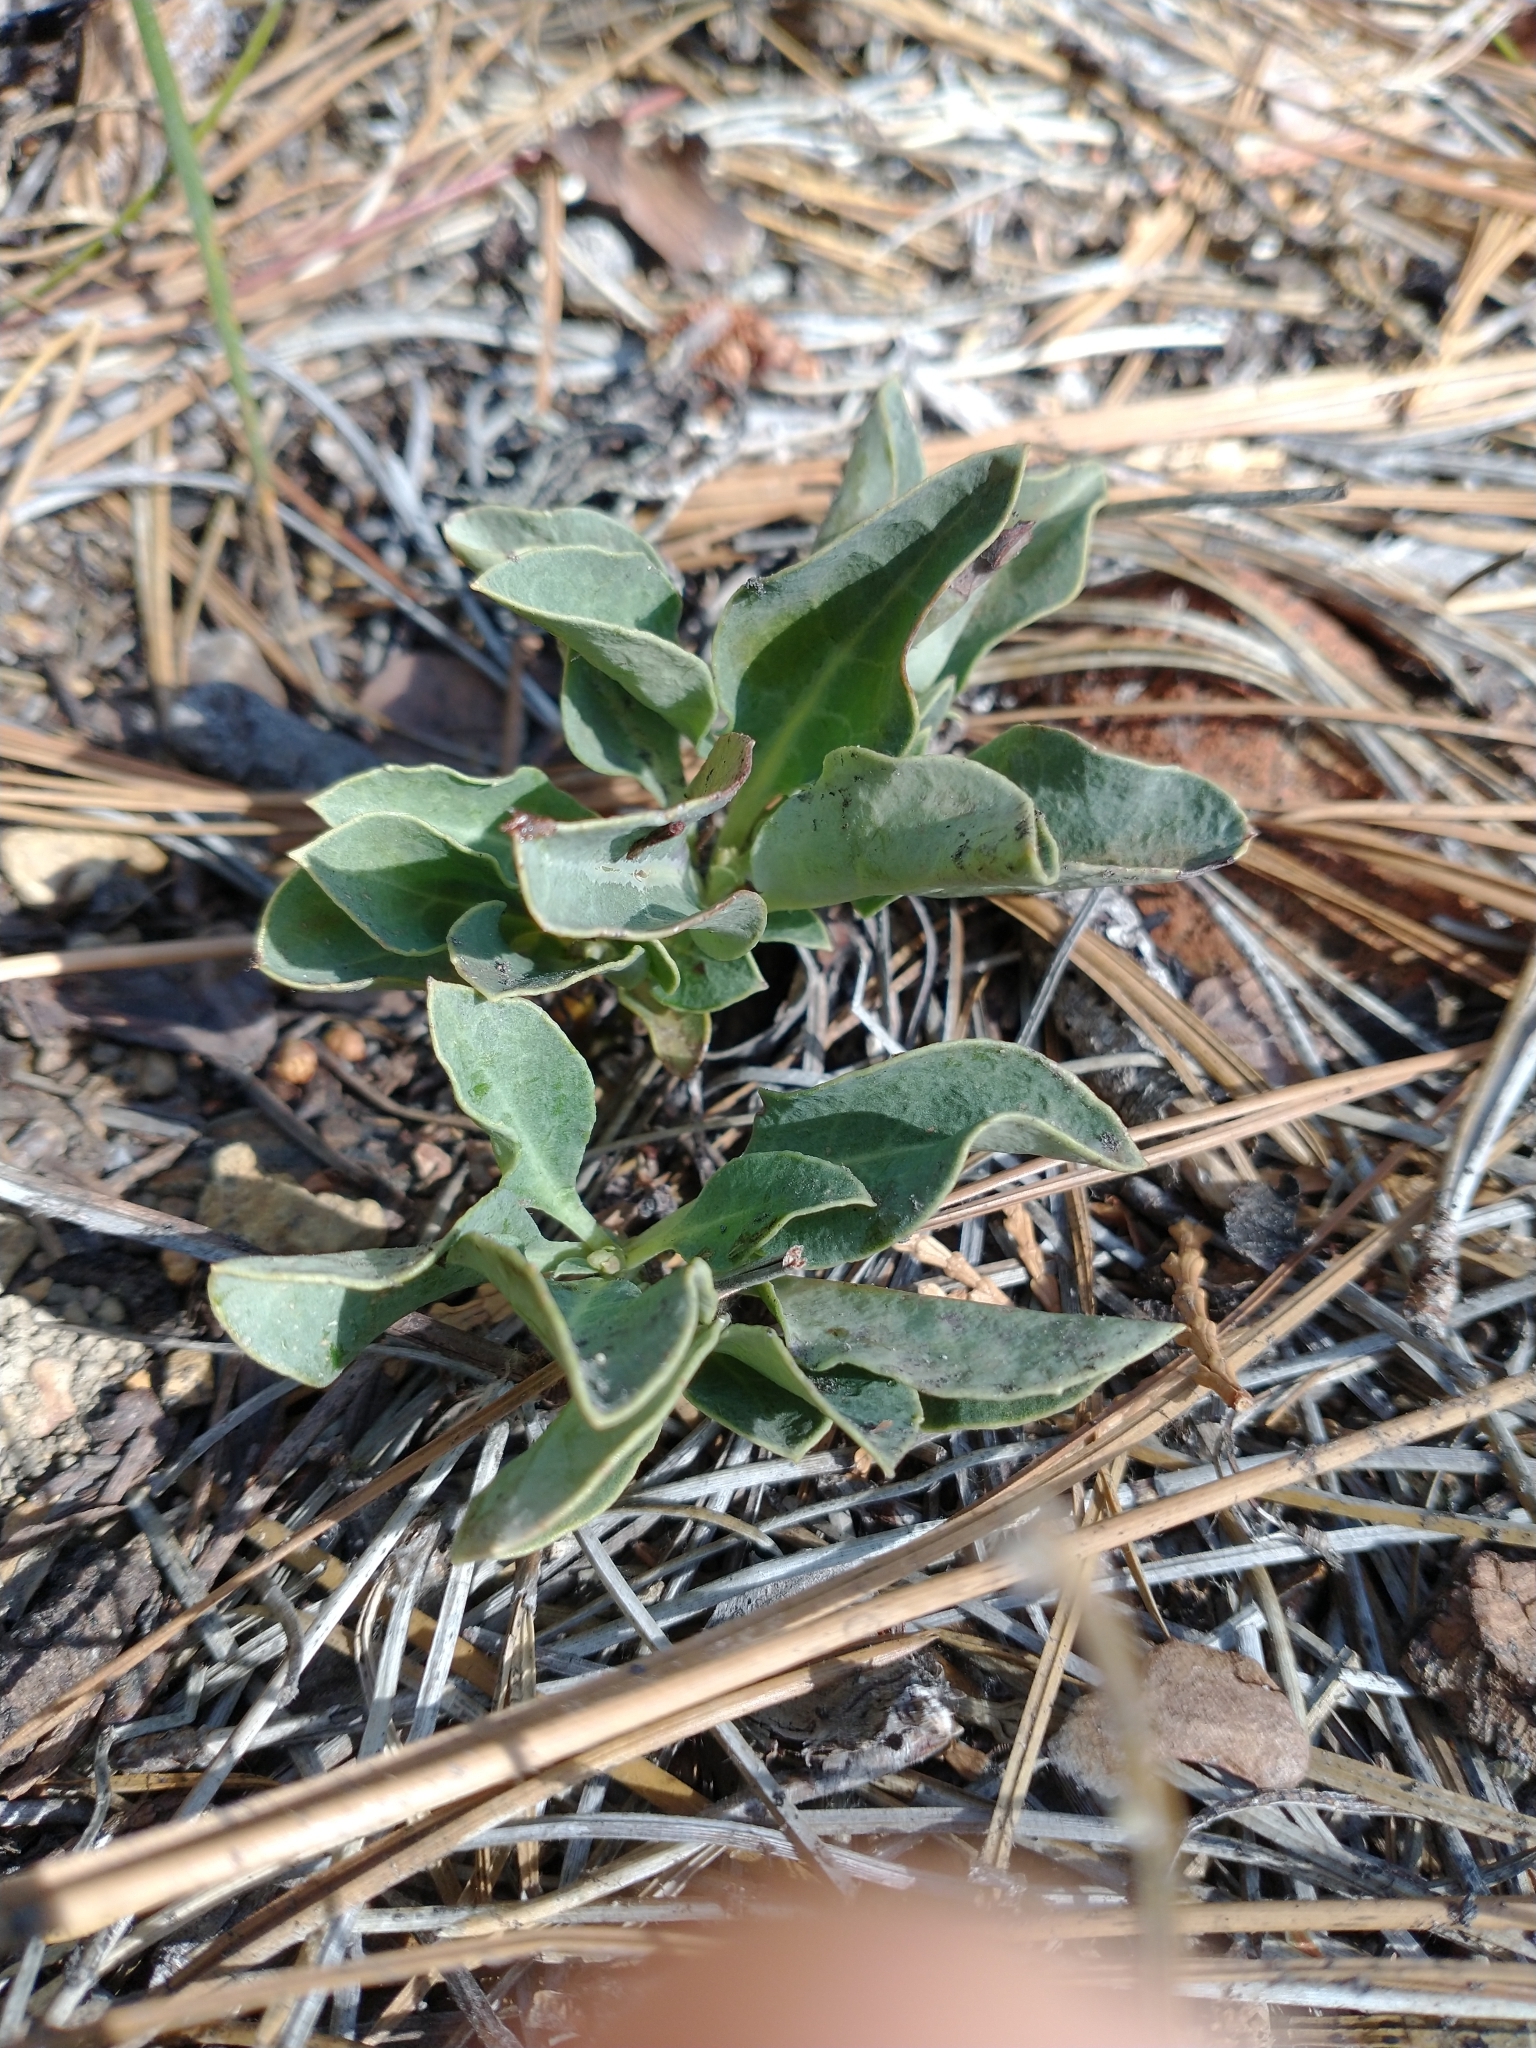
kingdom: Plantae
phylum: Tracheophyta
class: Magnoliopsida
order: Ericales
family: Ericaceae
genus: Pyrola
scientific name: Pyrola dentata
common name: Tooth-leaved wintergreen
